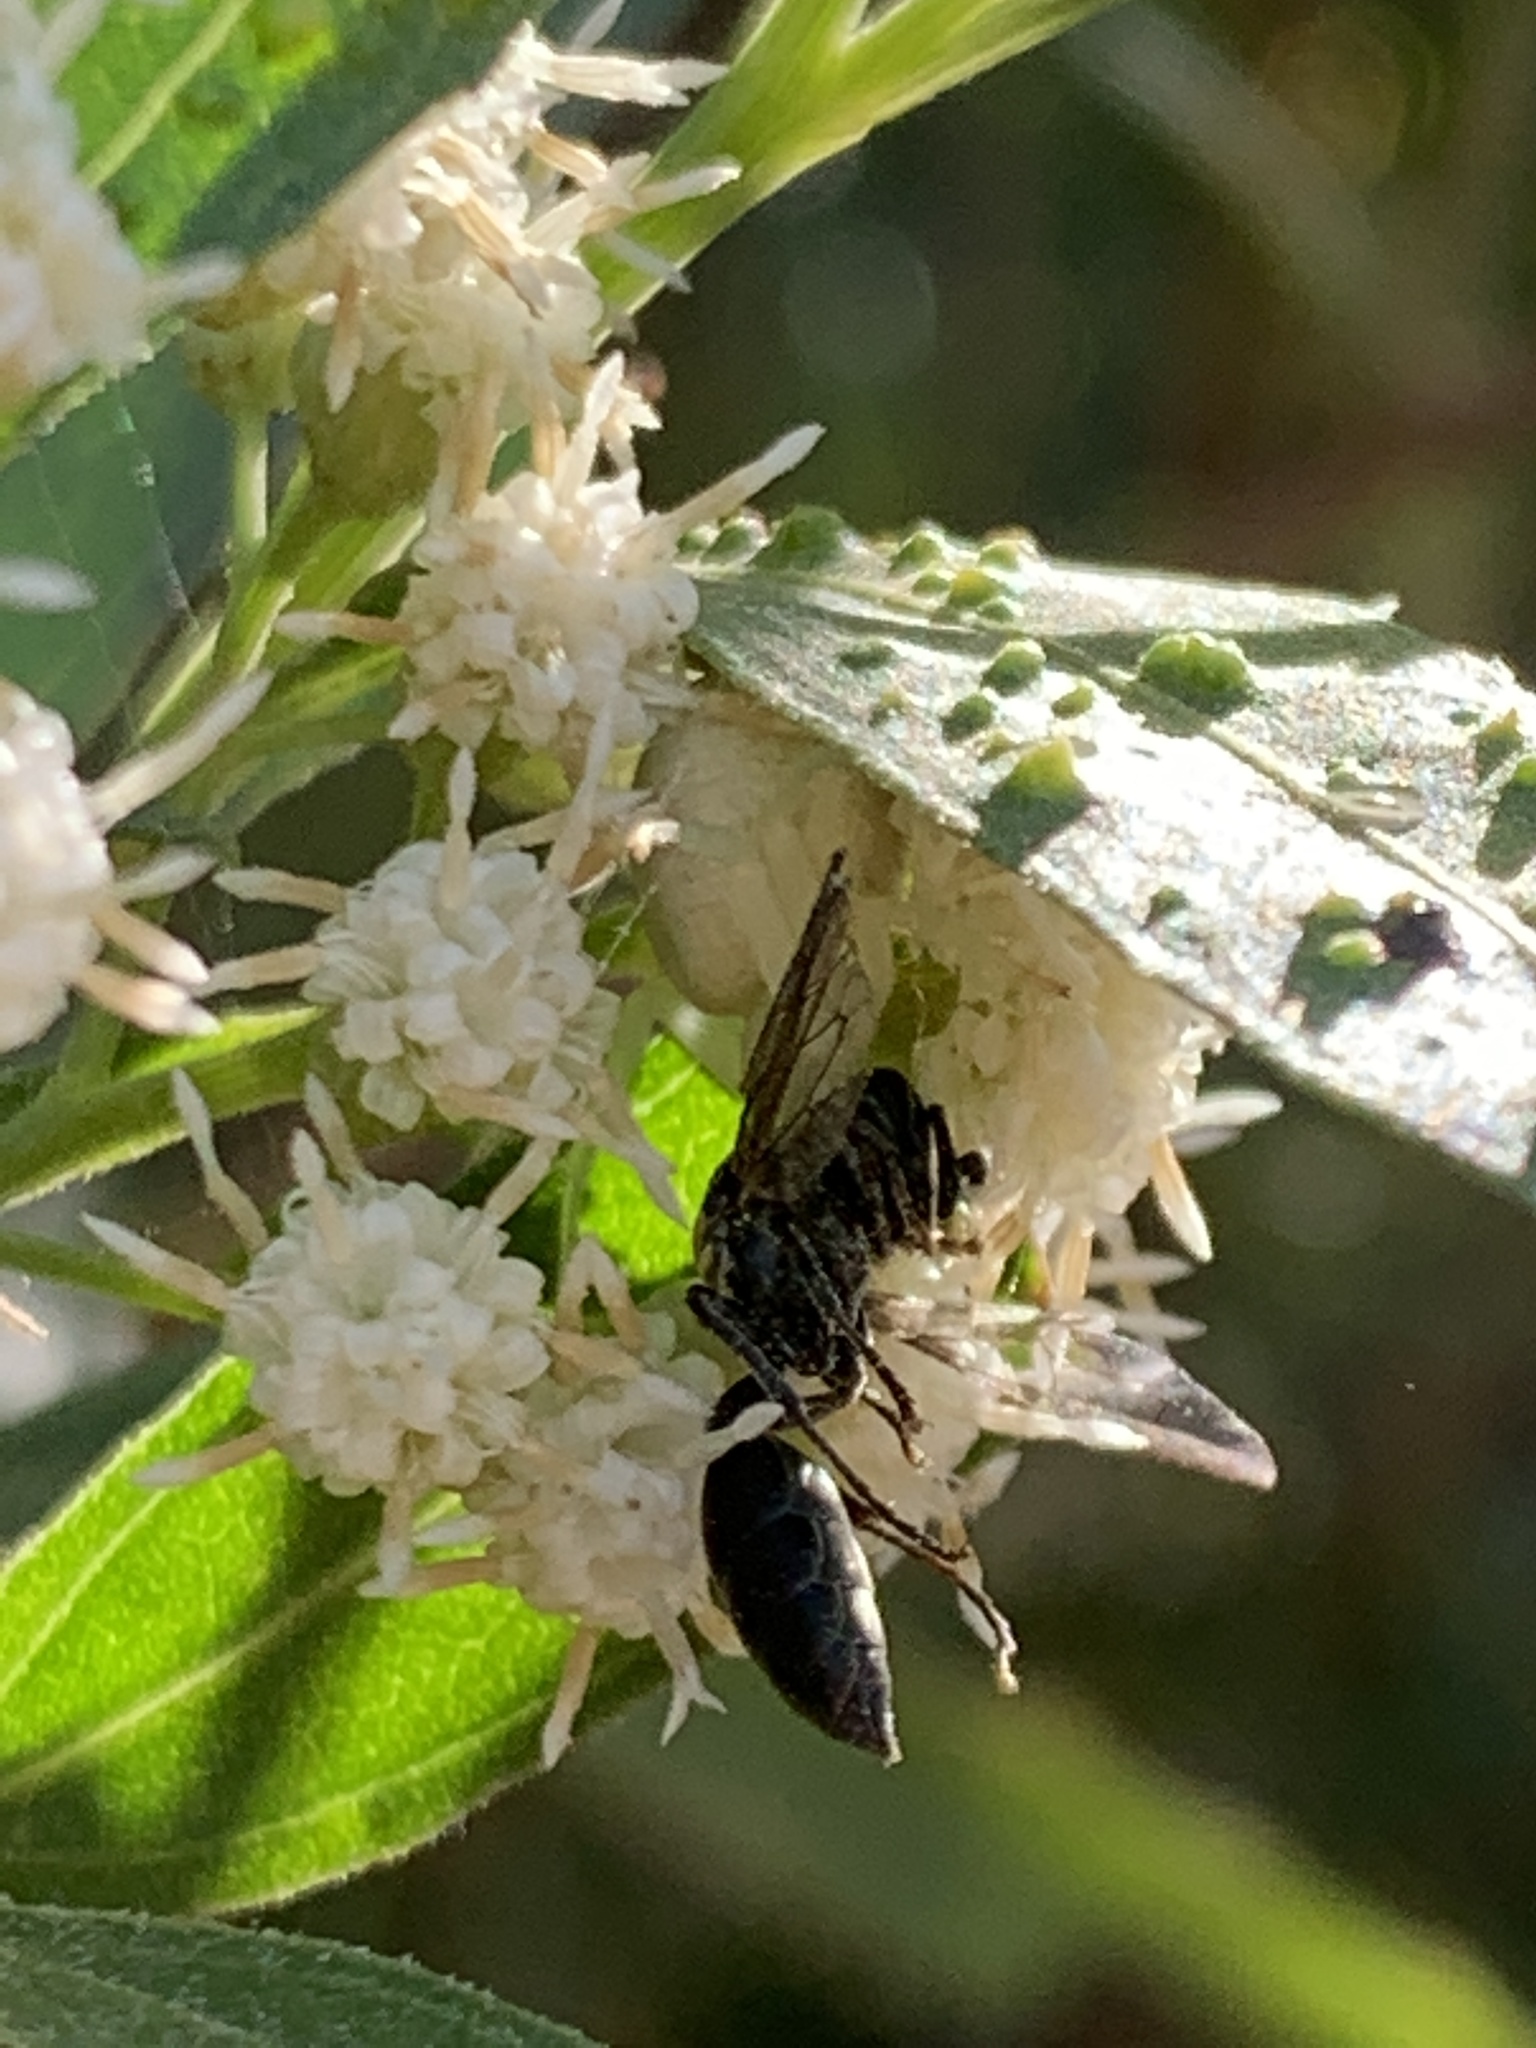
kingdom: Animalia
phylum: Arthropoda
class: Arachnida
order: Araneae
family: Thomisidae
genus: Misumenops
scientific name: Misumenops
